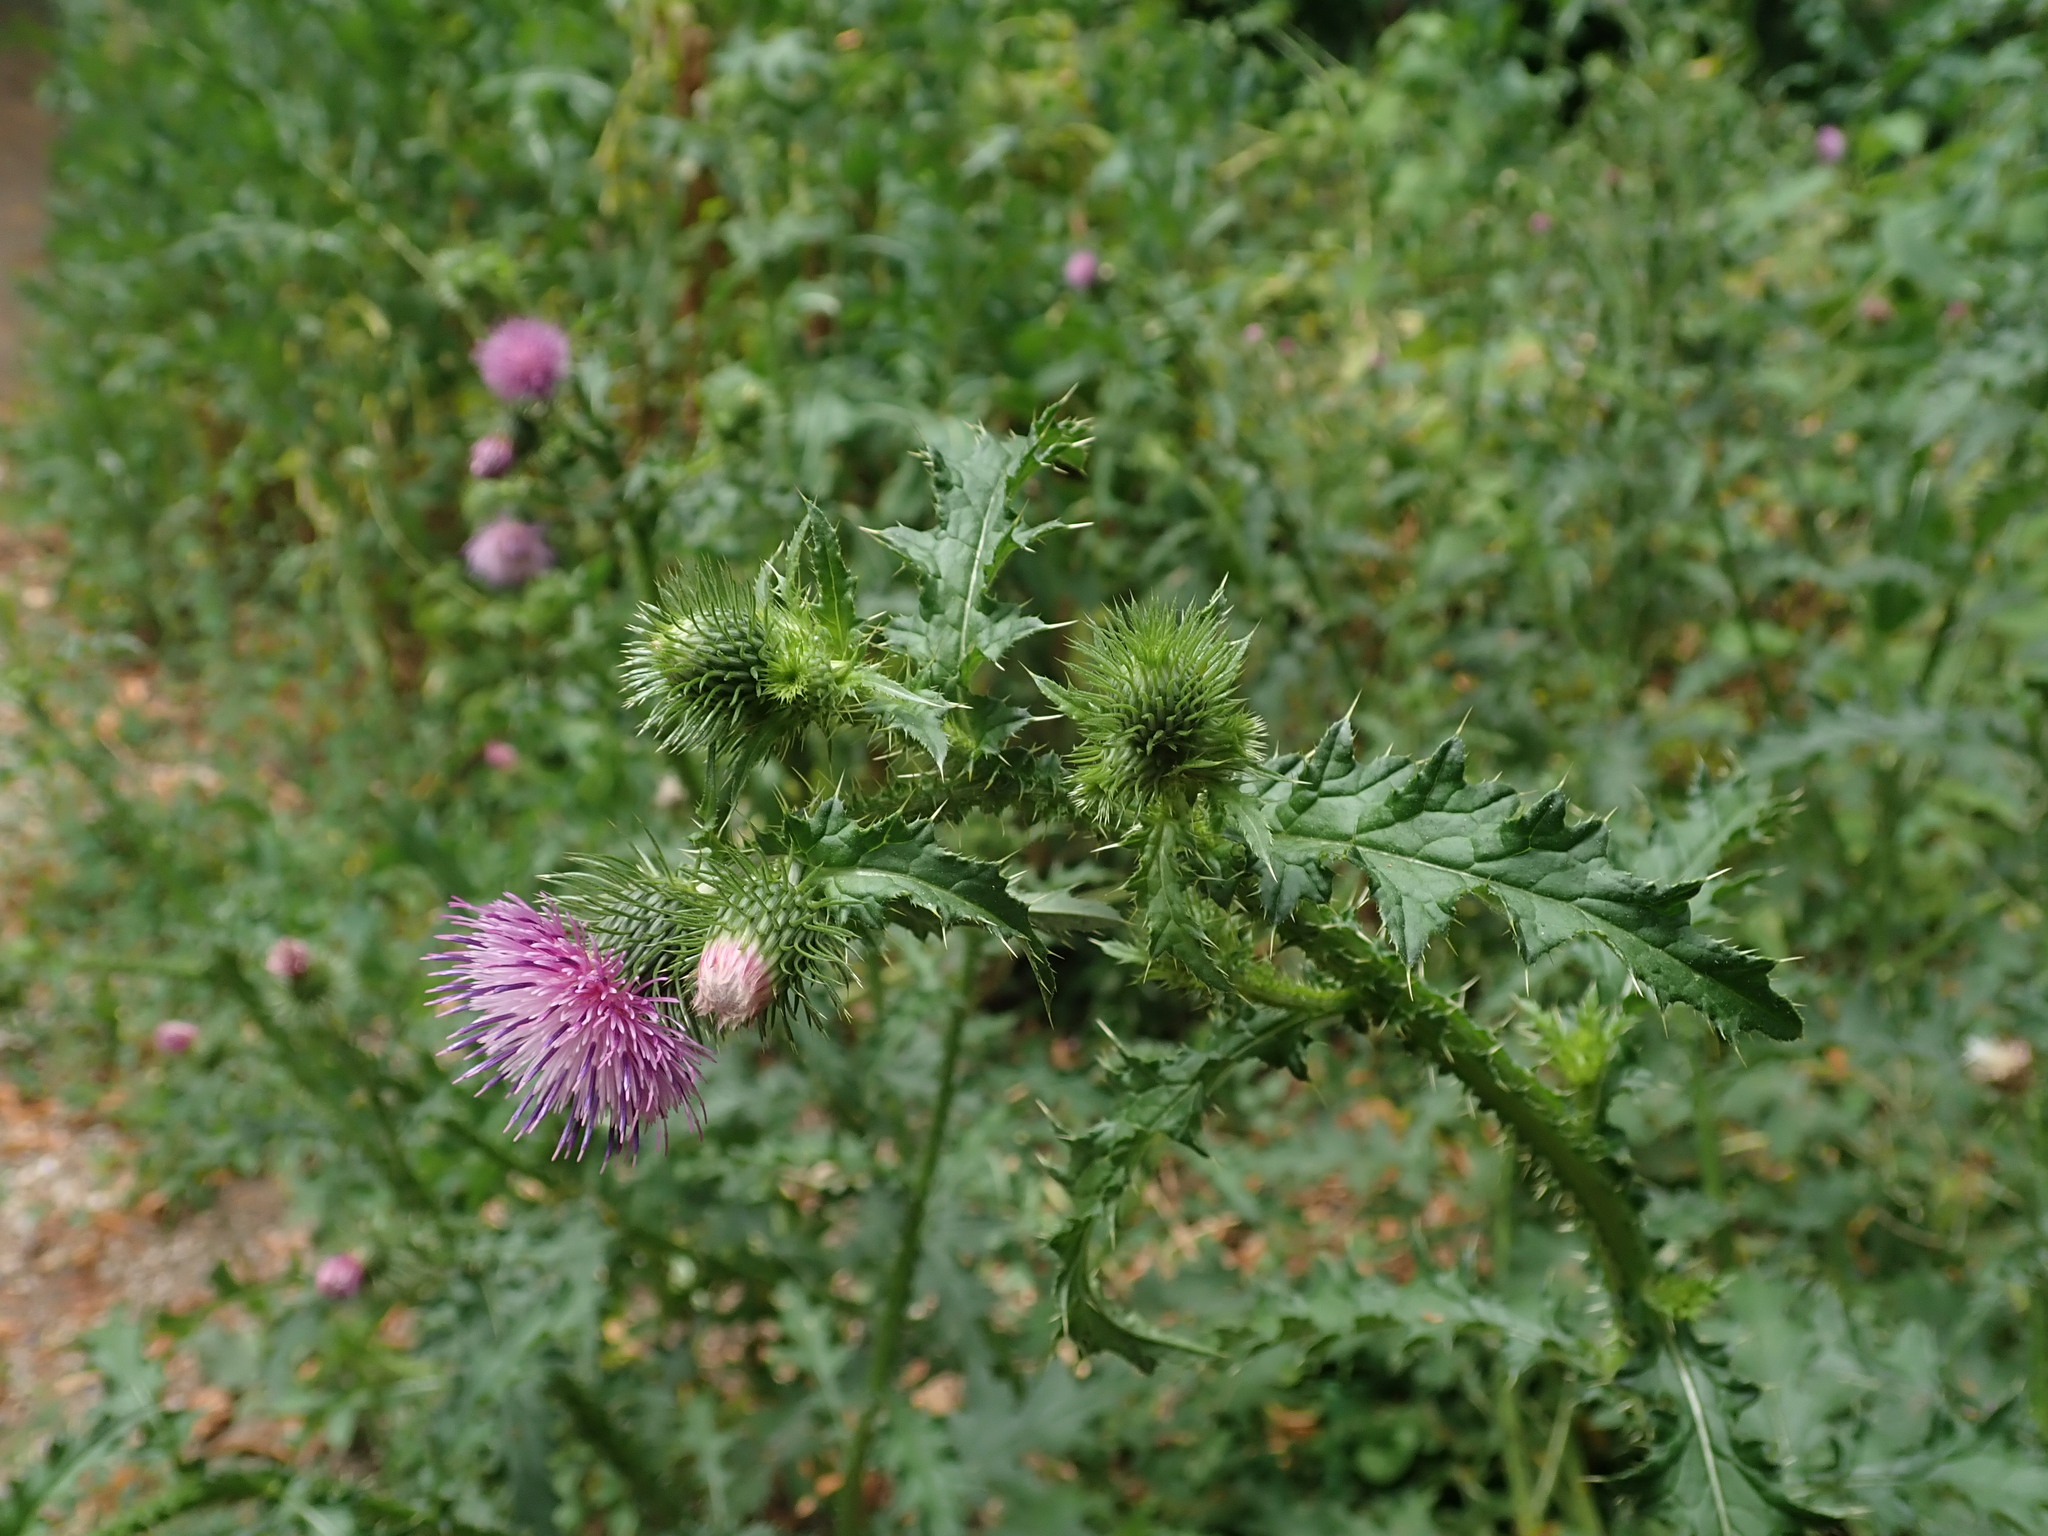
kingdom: Plantae
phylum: Tracheophyta
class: Magnoliopsida
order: Asterales
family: Asteraceae
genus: Carduus
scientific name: Carduus crispus
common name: Welted thistle
